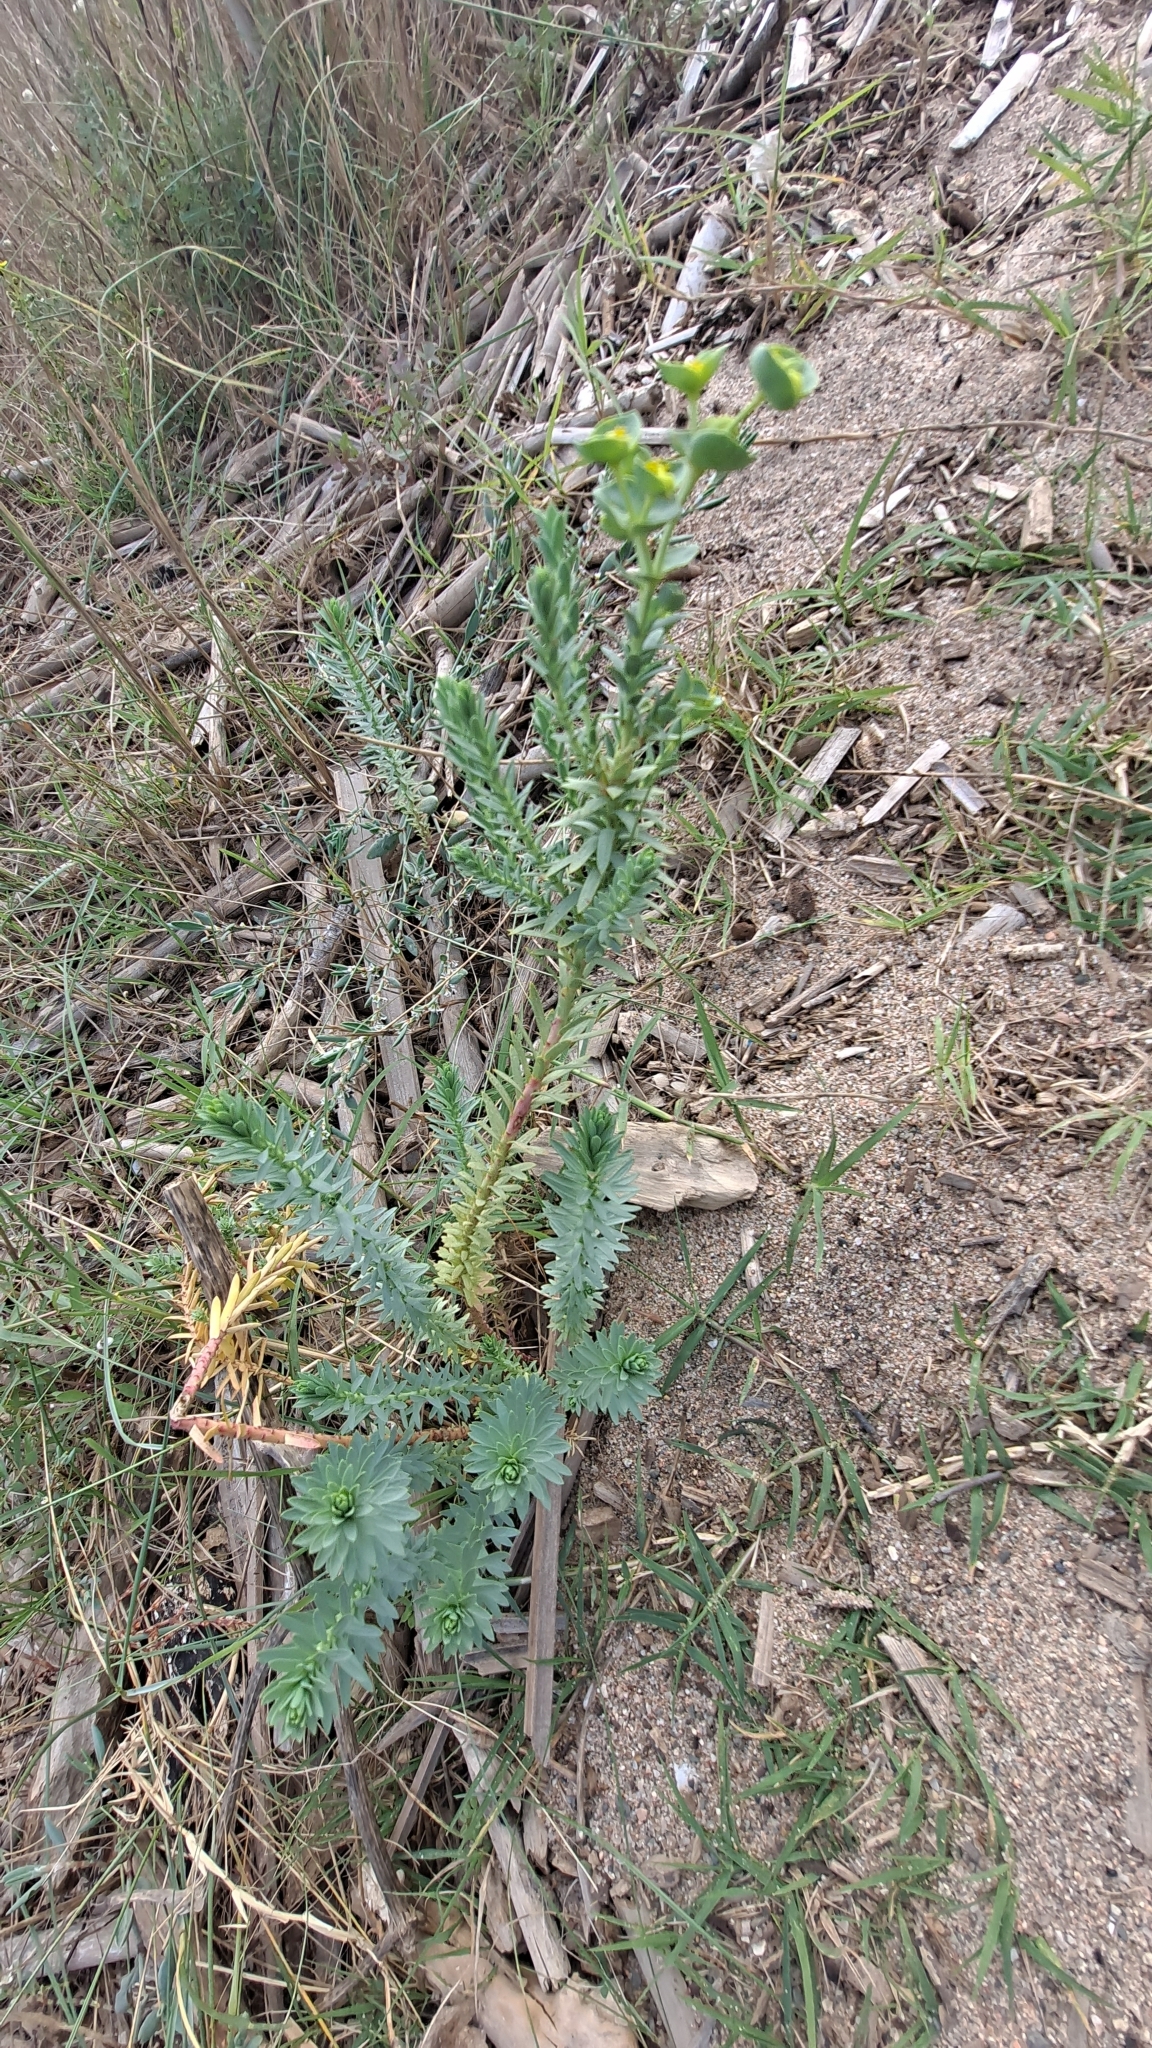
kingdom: Plantae
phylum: Tracheophyta
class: Magnoliopsida
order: Malpighiales
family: Euphorbiaceae
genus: Euphorbia
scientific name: Euphorbia paralias
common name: Sea spurge
